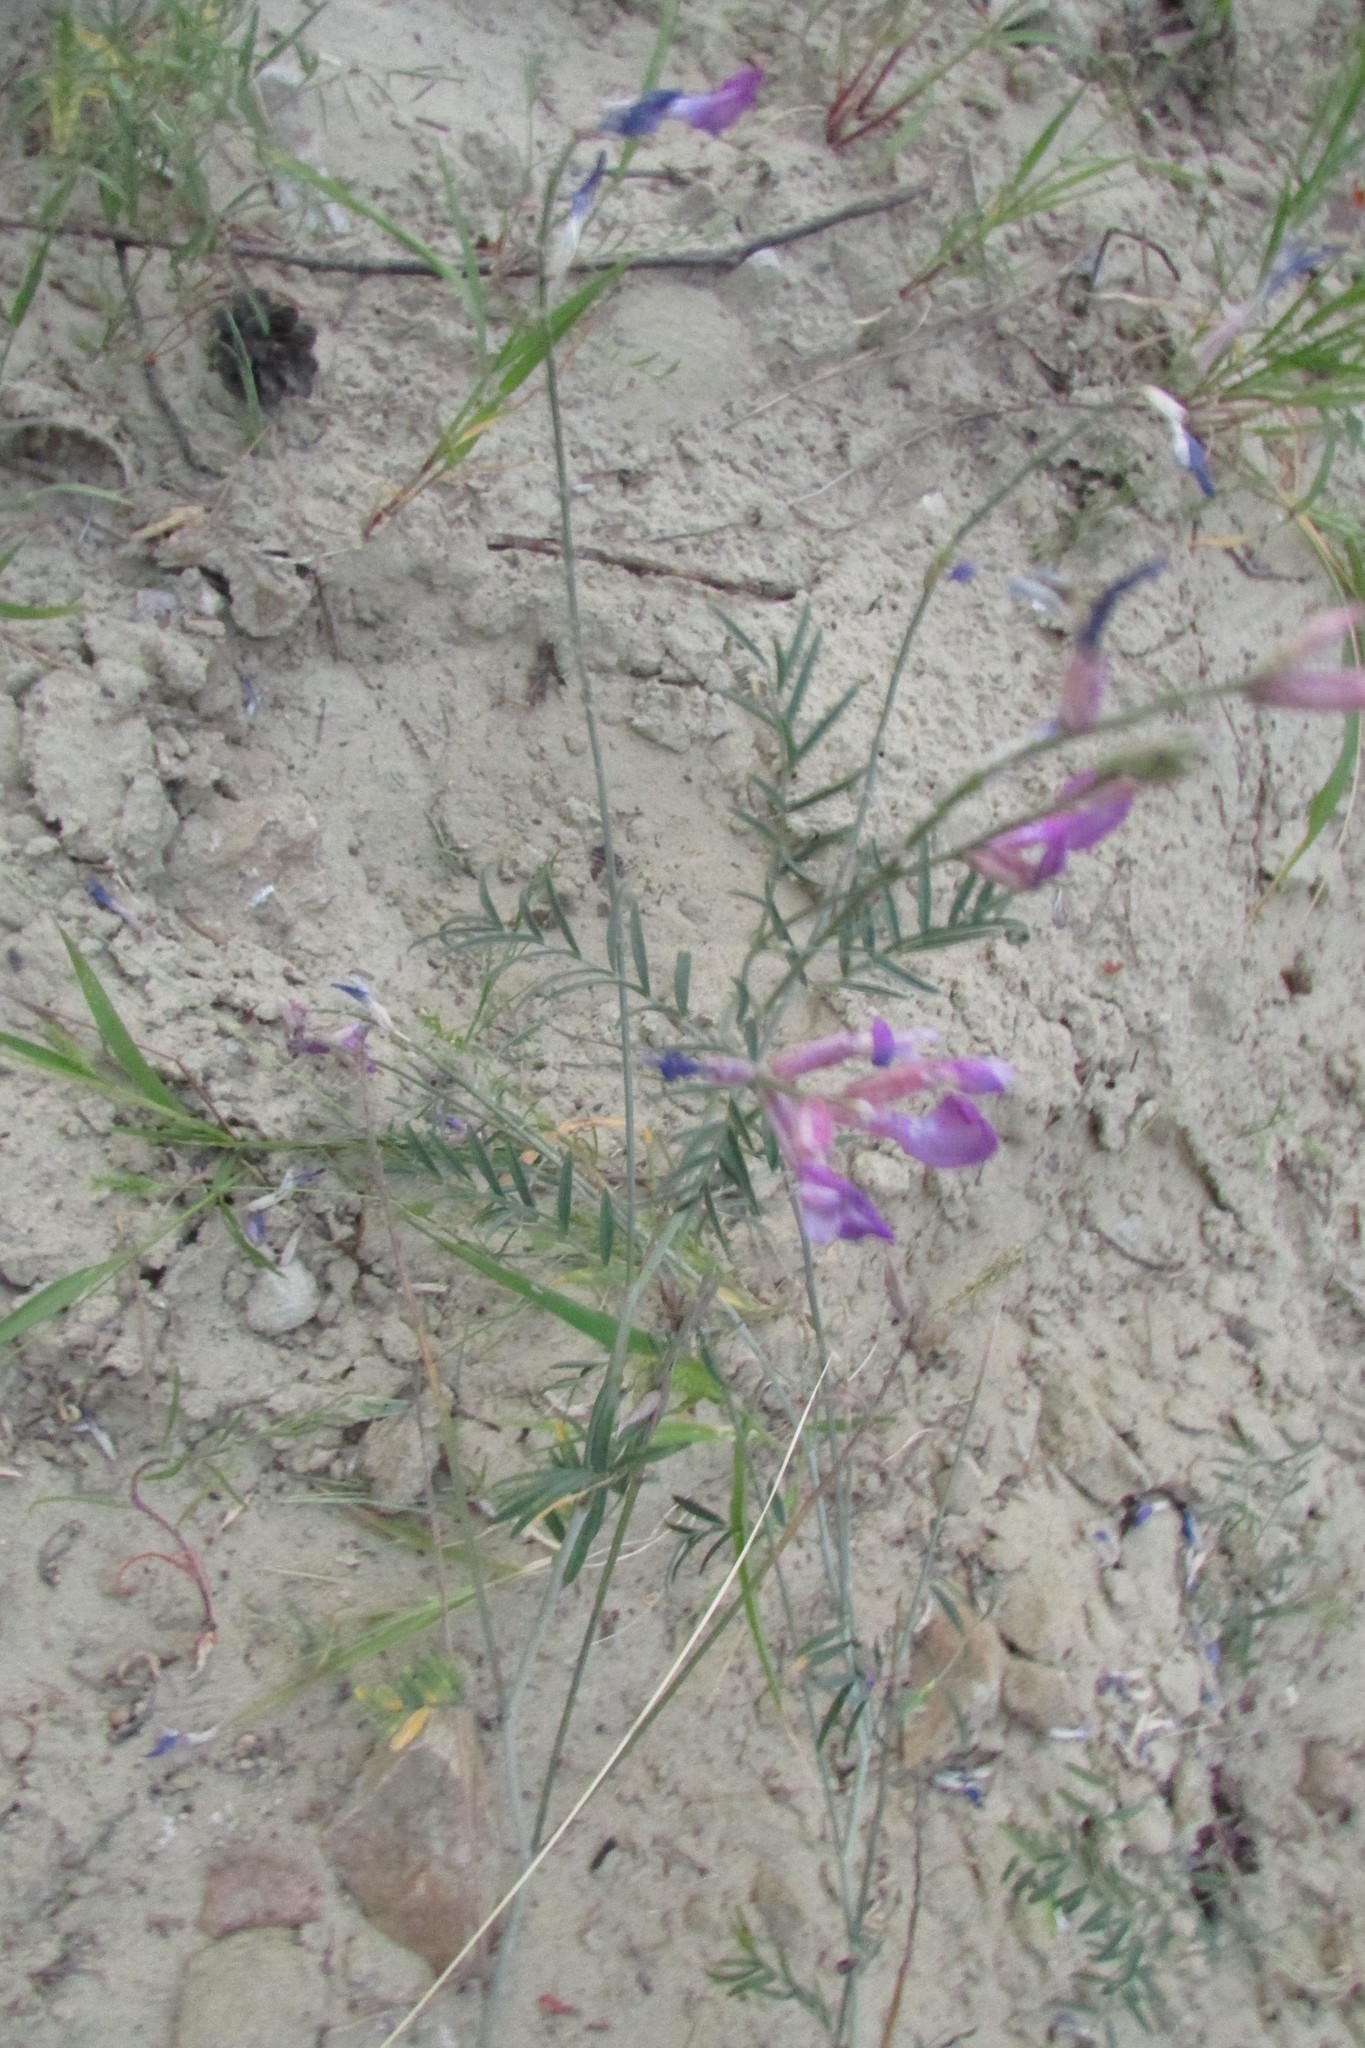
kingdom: Plantae
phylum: Tracheophyta
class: Magnoliopsida
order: Fabales
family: Fabaceae
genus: Astragalus
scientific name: Astragalus varius
